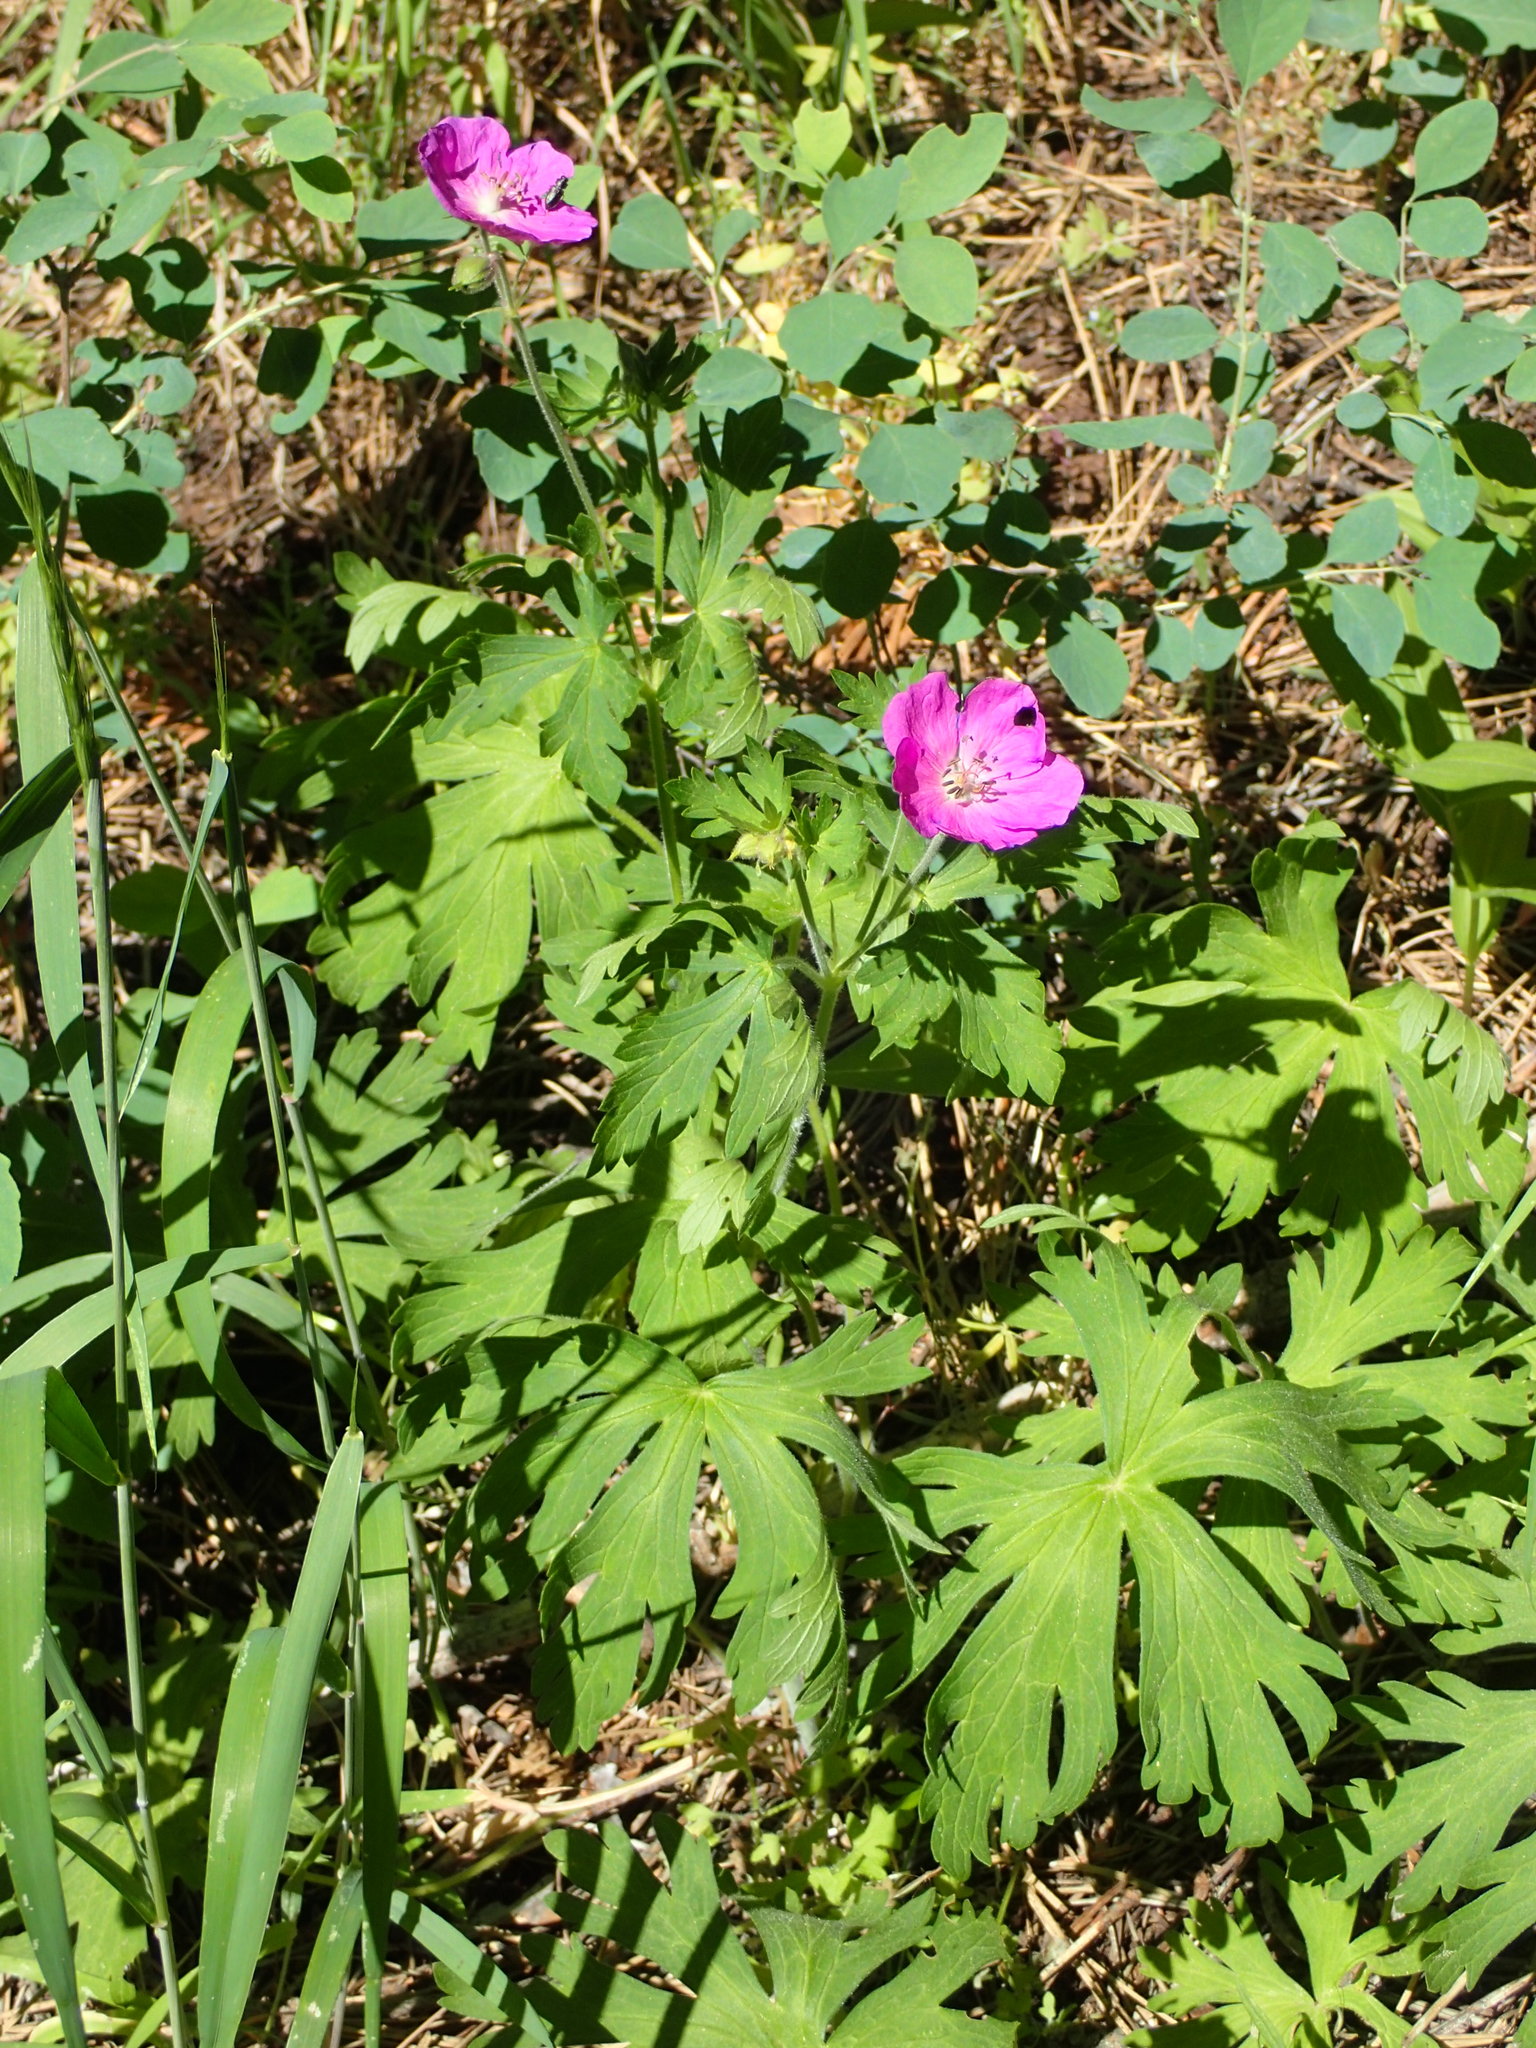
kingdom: Plantae
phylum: Tracheophyta
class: Magnoliopsida
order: Geraniales
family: Geraniaceae
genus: Geranium
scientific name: Geranium oreganum
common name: Oregon crane's-bill
